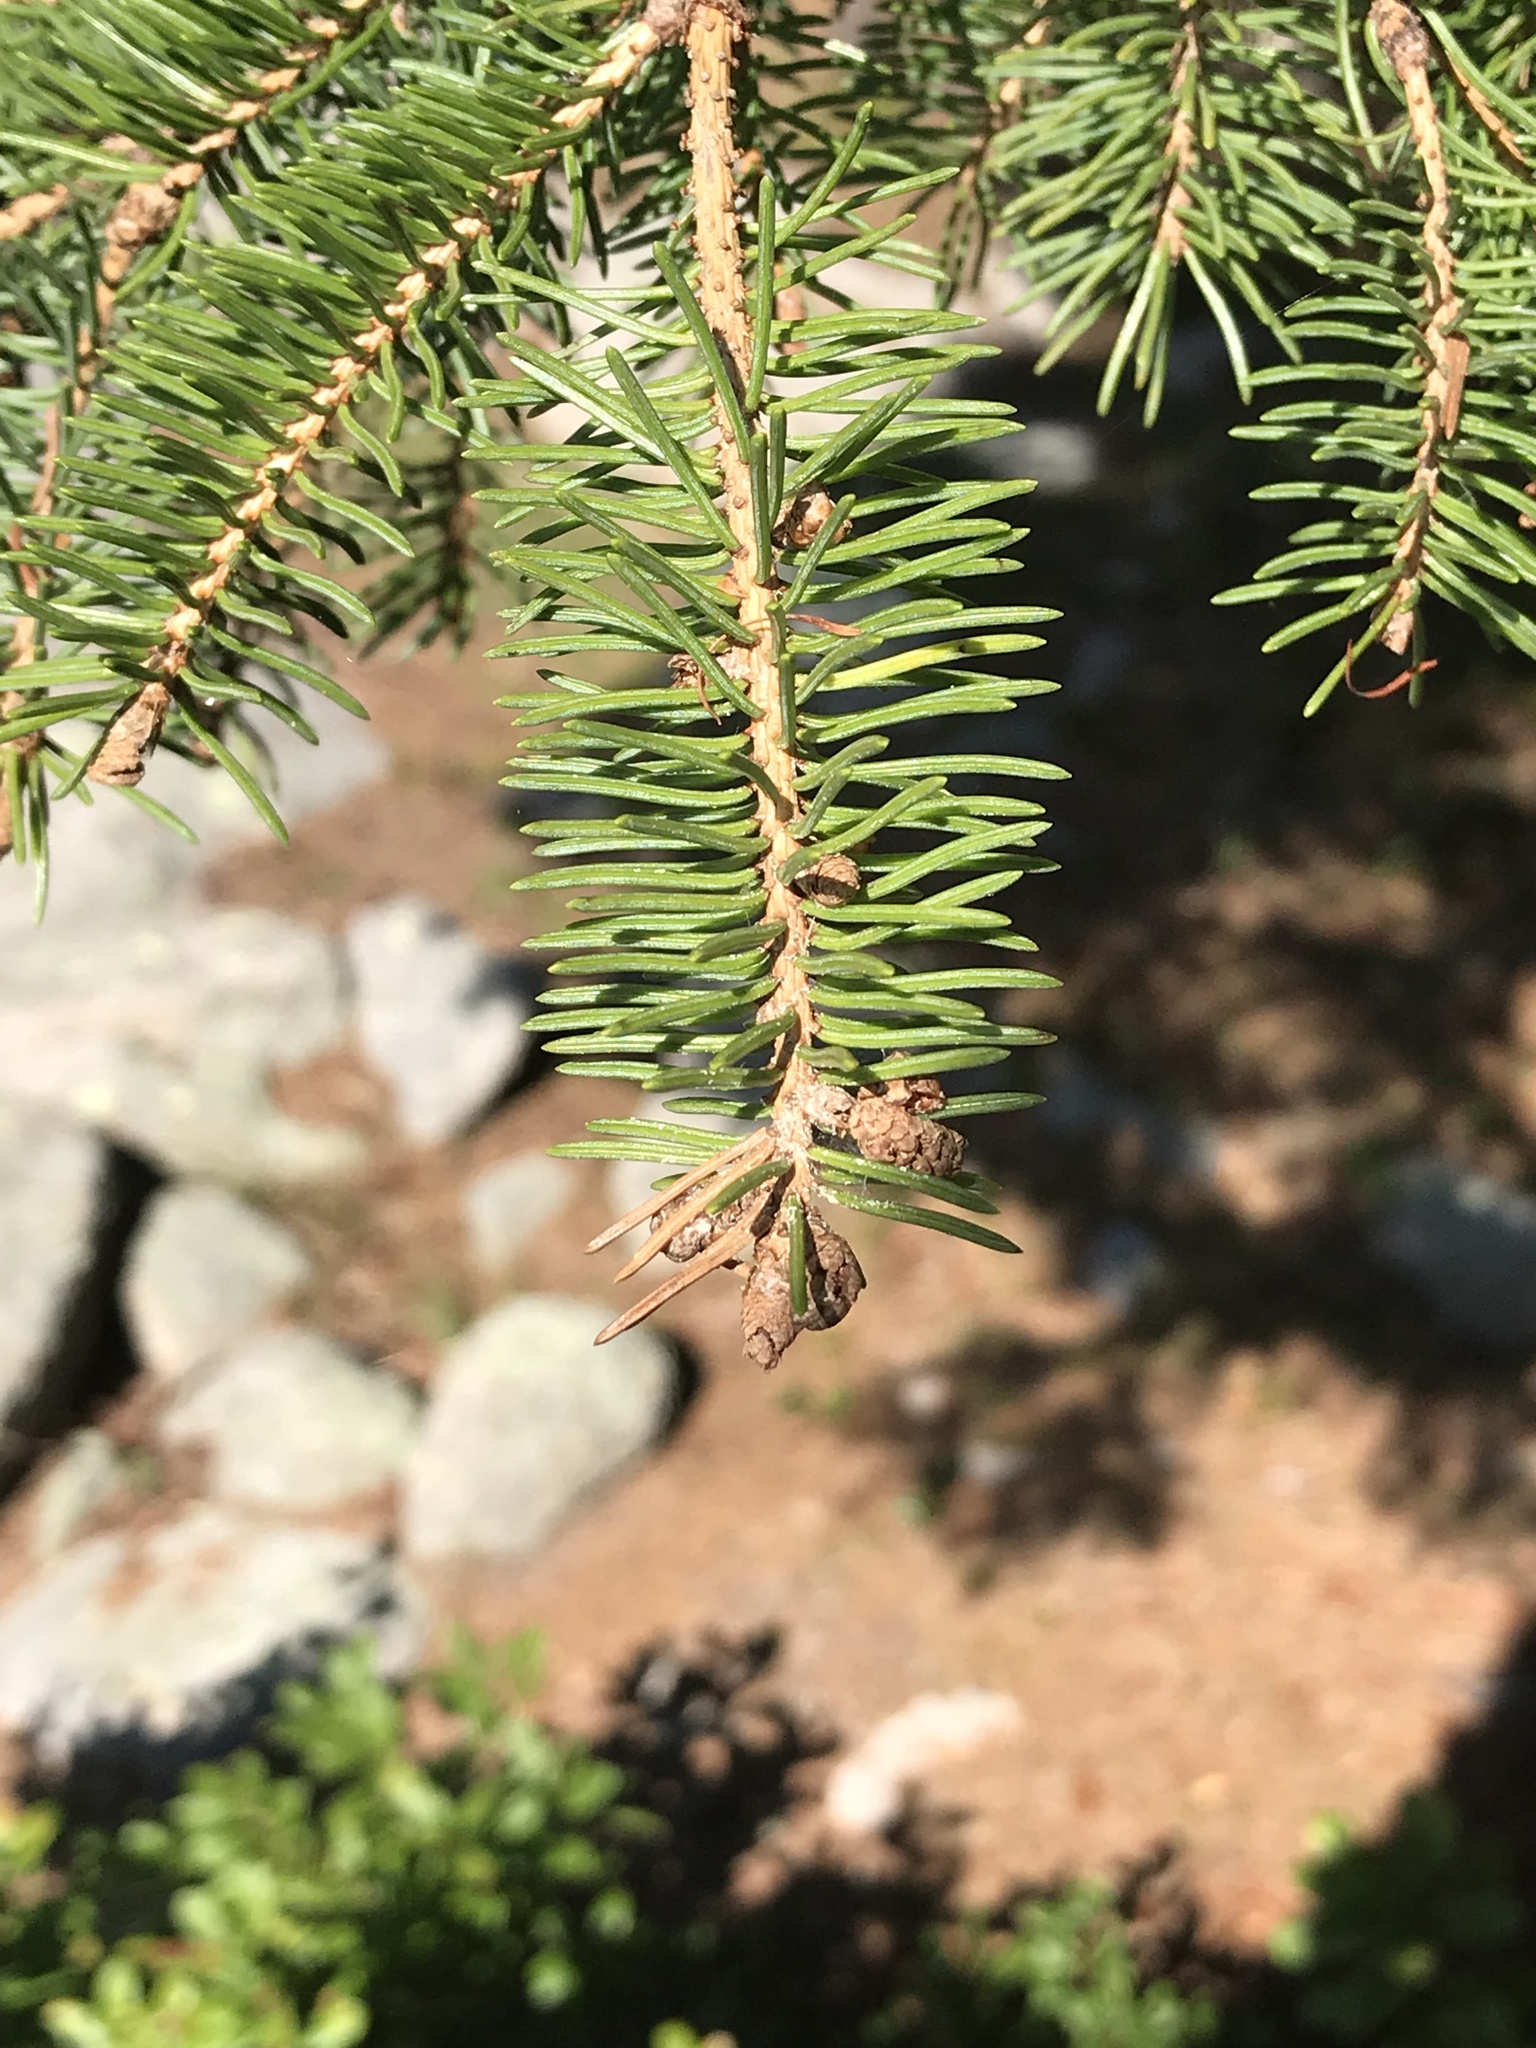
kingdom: Plantae
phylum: Tracheophyta
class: Pinopsida
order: Pinales
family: Pinaceae
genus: Picea
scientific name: Picea glauca
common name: White spruce
